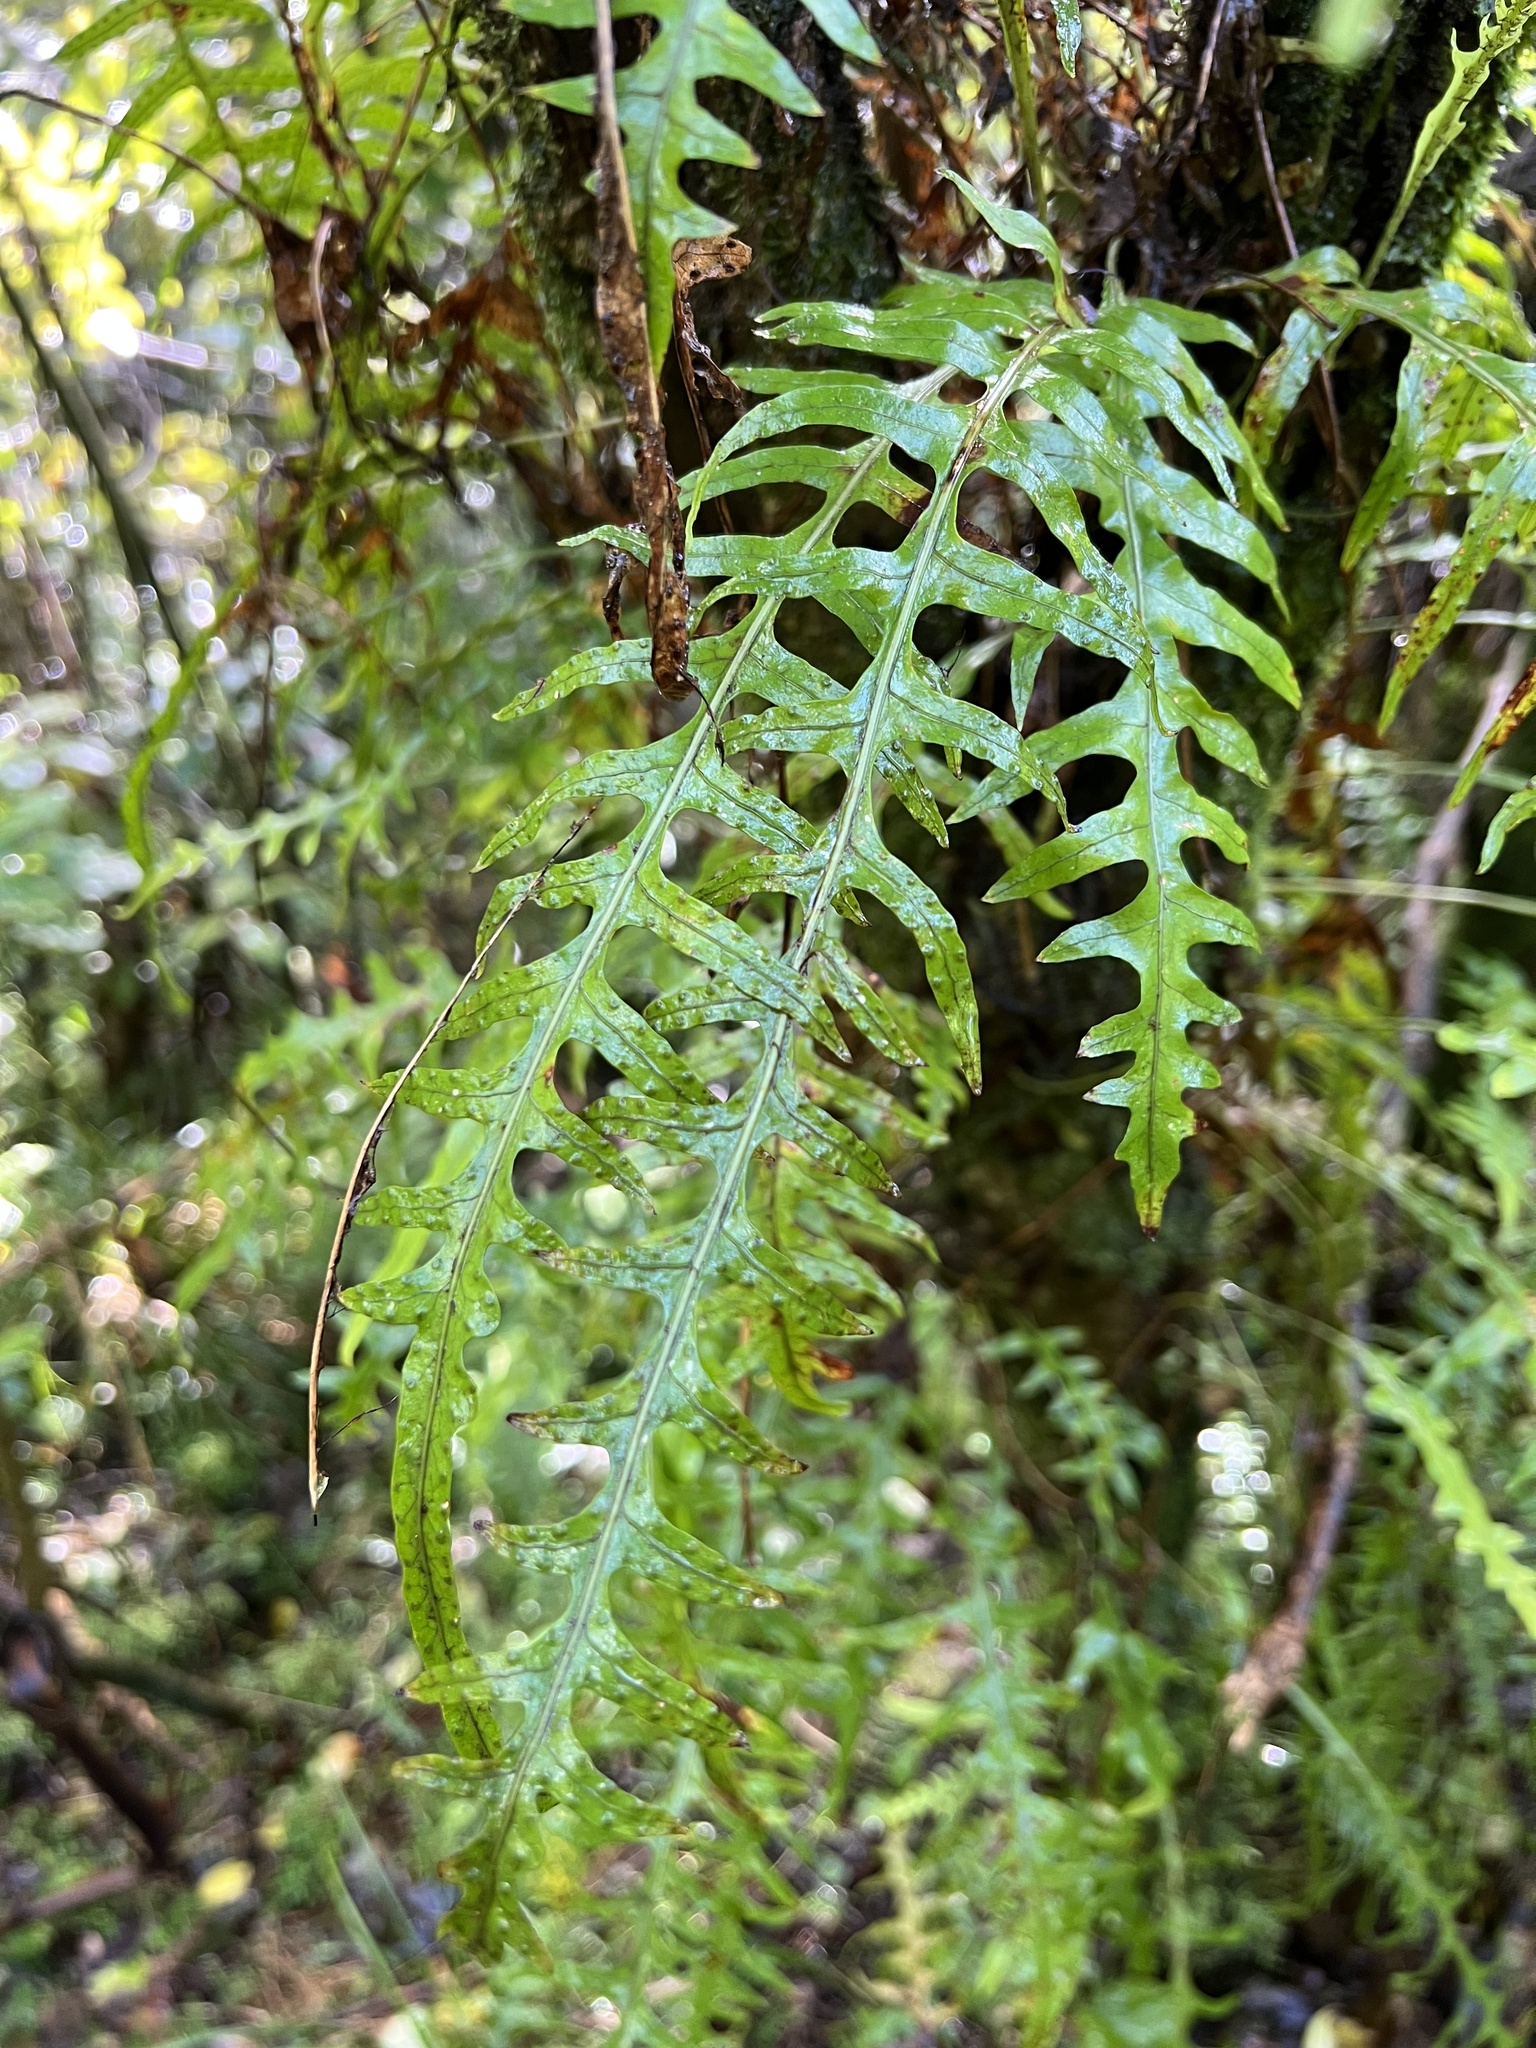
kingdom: Plantae
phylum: Tracheophyta
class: Polypodiopsida
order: Polypodiales
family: Polypodiaceae
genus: Lecanopteris
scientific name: Lecanopteris scandens
